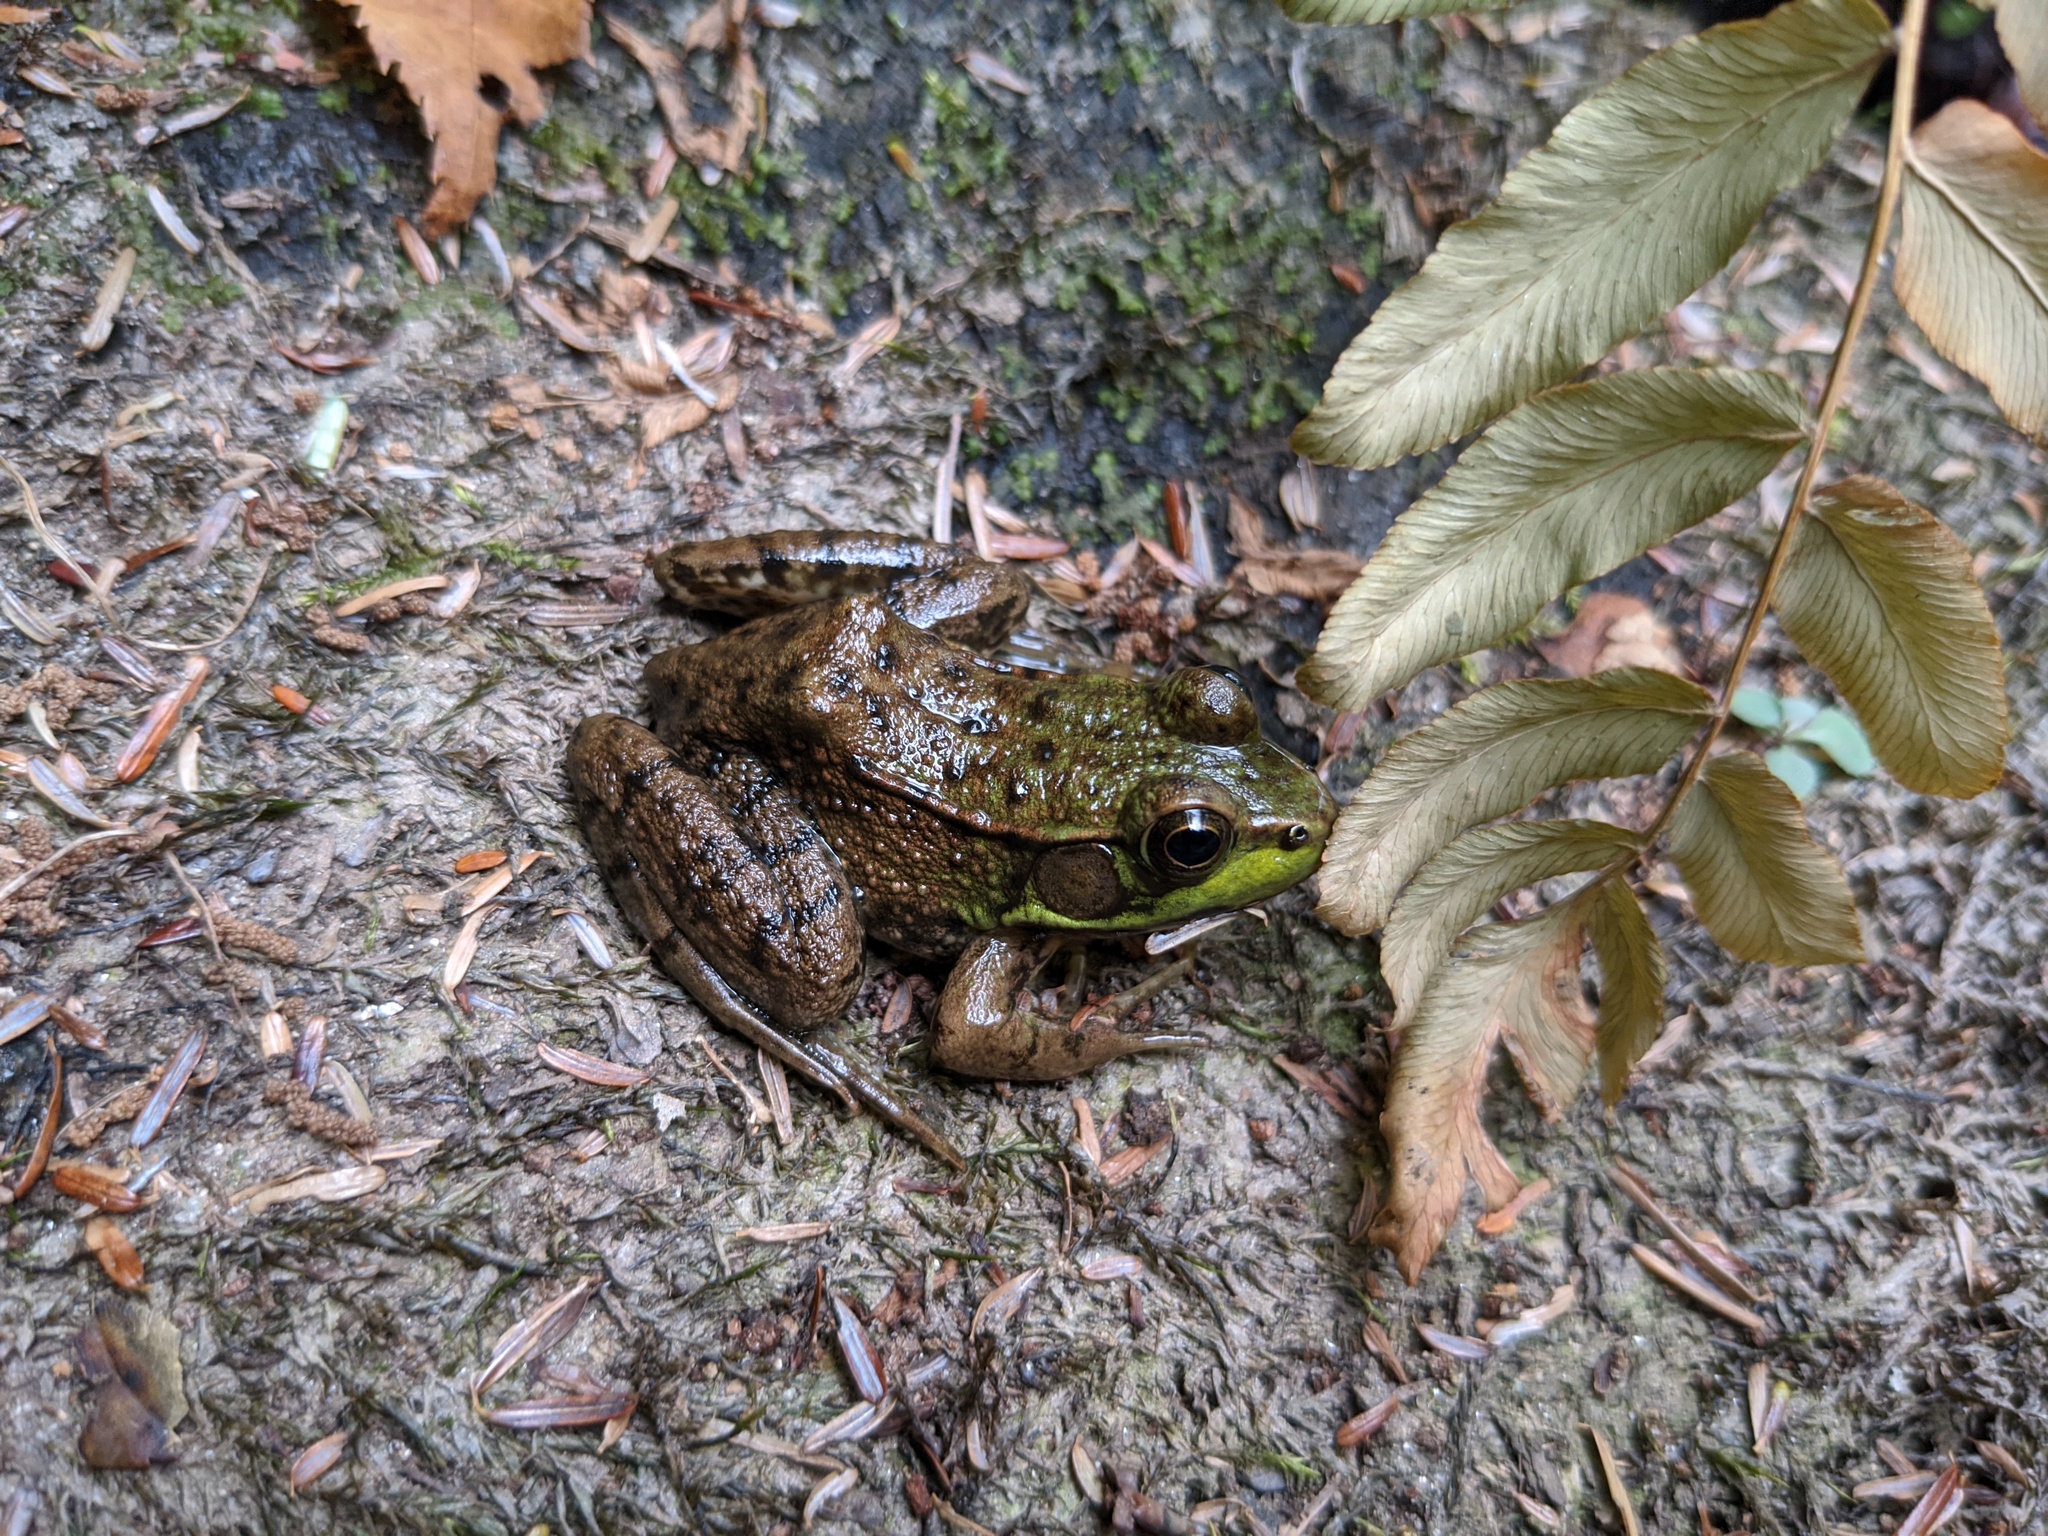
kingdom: Animalia
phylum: Chordata
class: Amphibia
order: Anura
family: Ranidae
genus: Lithobates
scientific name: Lithobates clamitans
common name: Green frog
